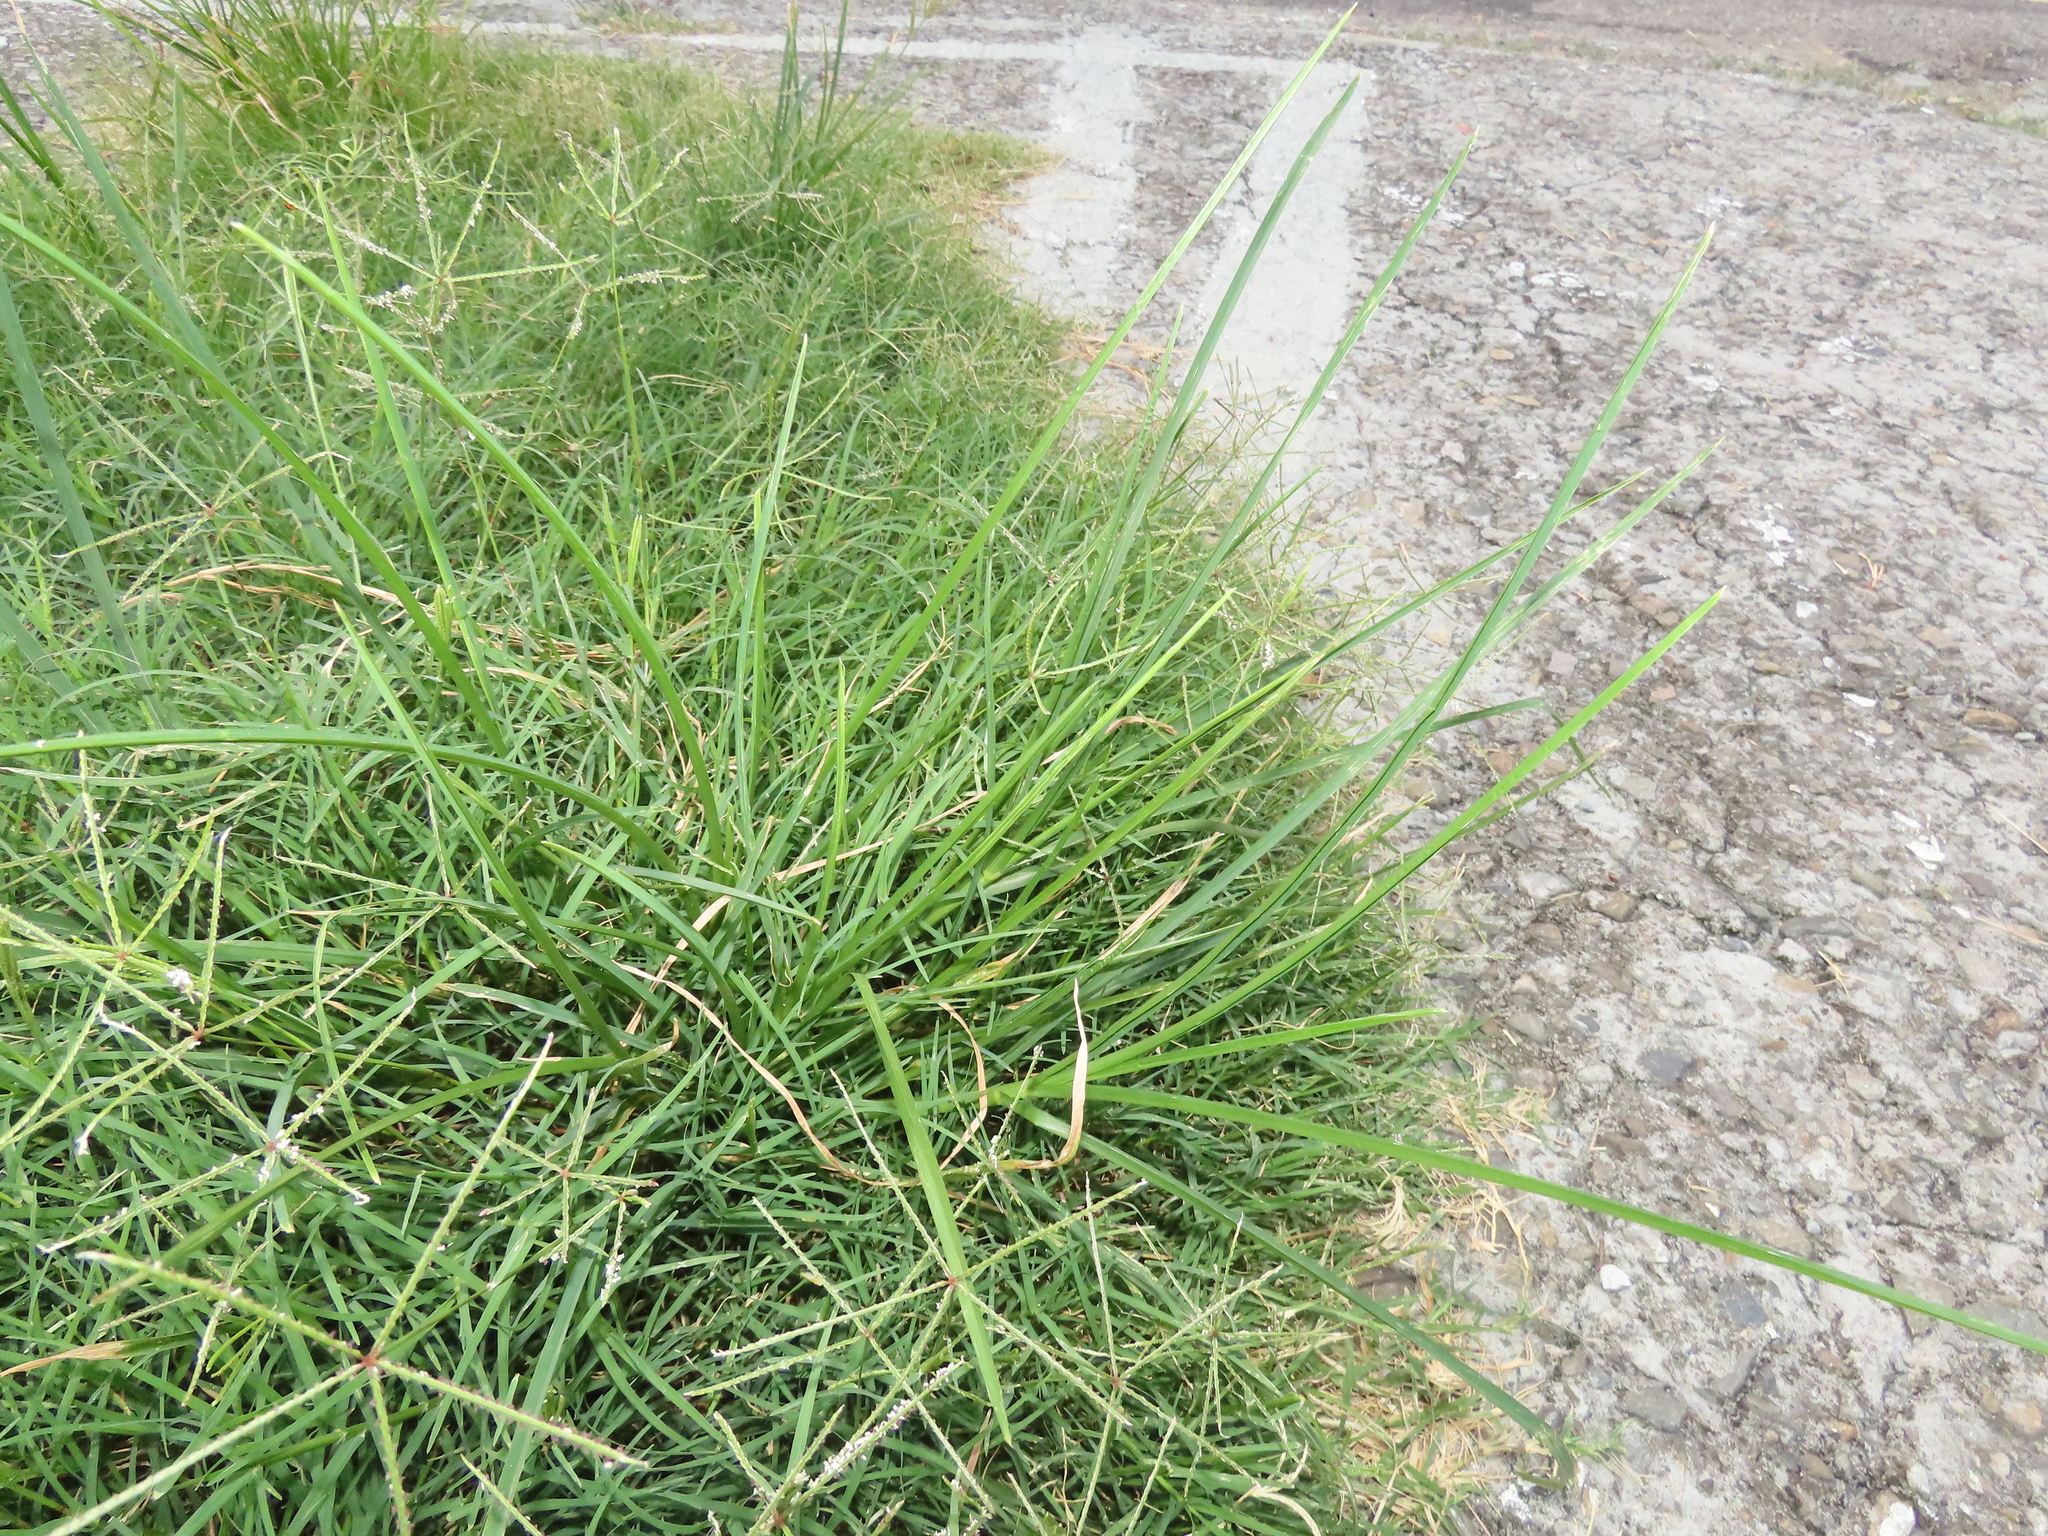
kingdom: Plantae
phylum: Tracheophyta
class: Liliopsida
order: Poales
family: Poaceae
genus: Eleusine
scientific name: Eleusine indica
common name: Yard-grass
